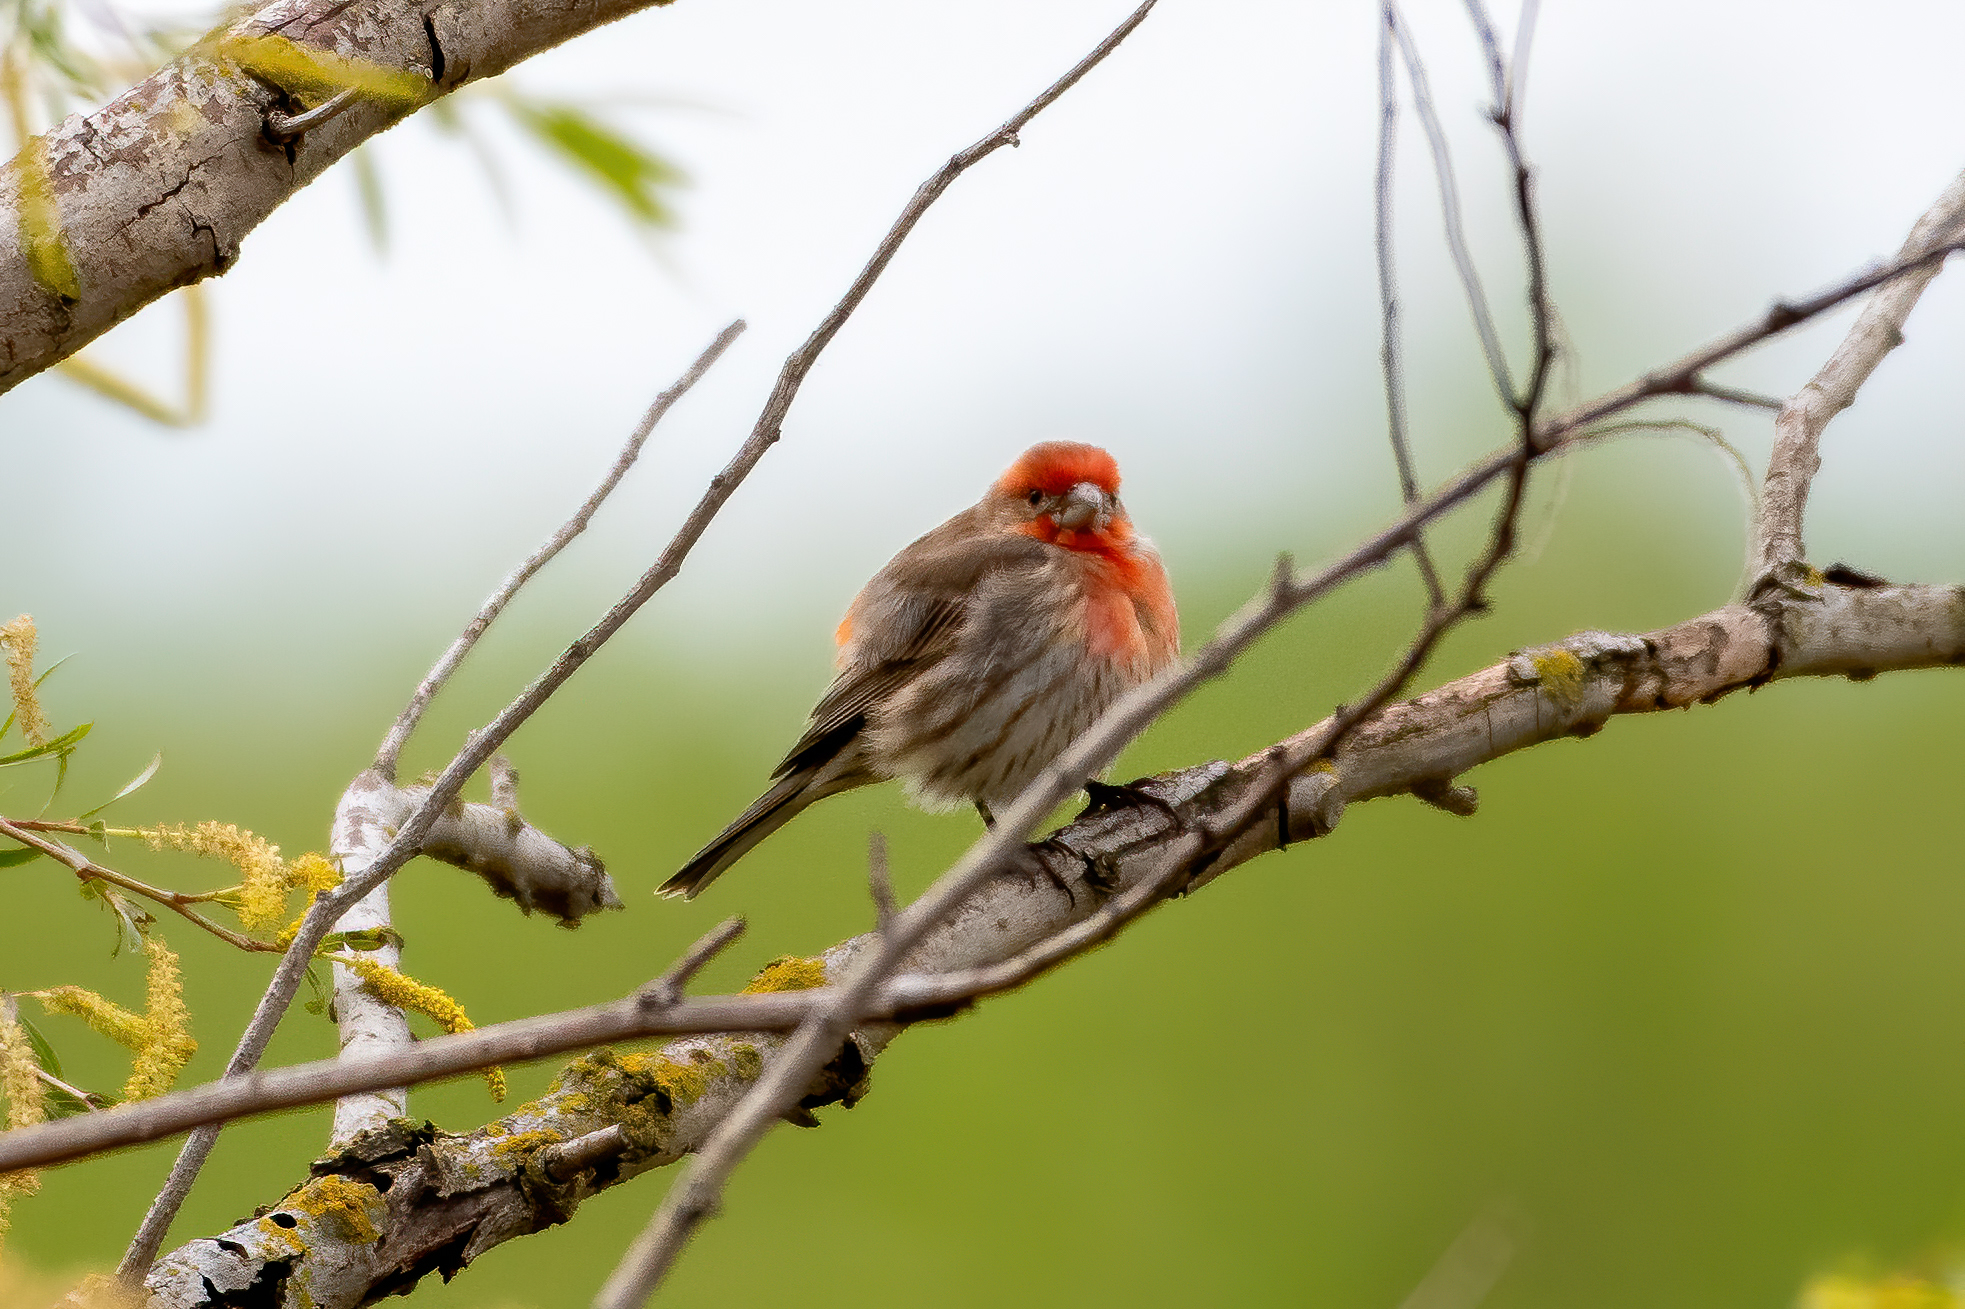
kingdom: Animalia
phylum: Chordata
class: Aves
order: Passeriformes
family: Fringillidae
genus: Haemorhous
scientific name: Haemorhous mexicanus
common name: House finch
